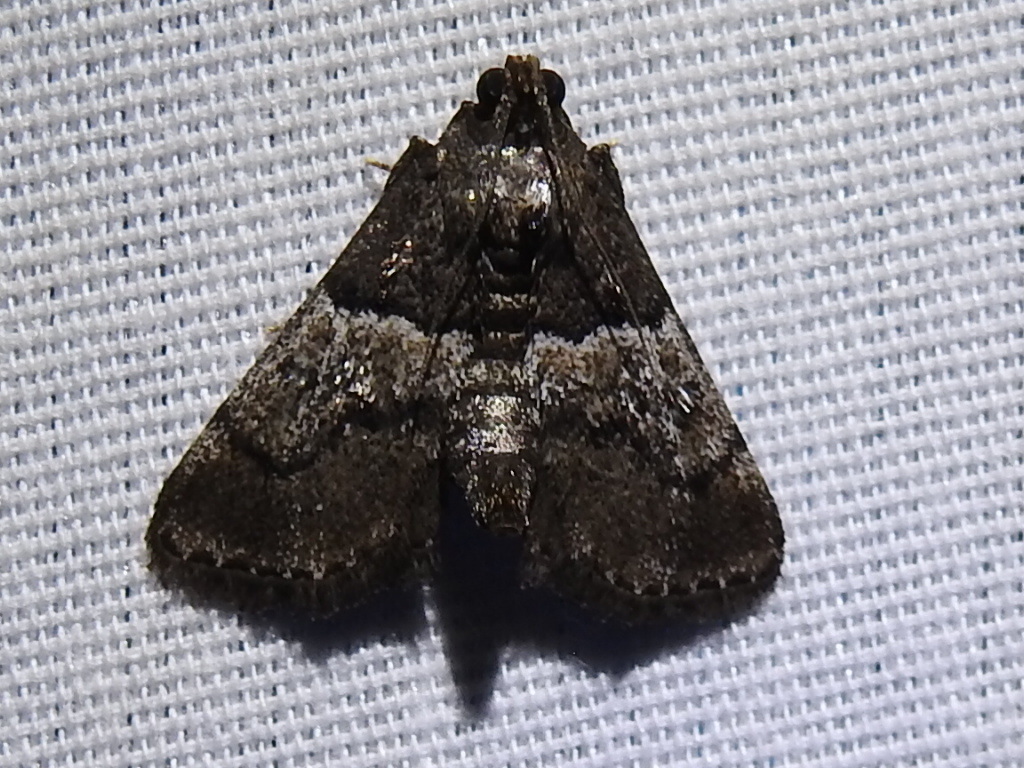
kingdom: Animalia
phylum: Arthropoda
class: Insecta
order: Lepidoptera
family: Pyralidae
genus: Macalla
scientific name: Macalla zelleri
